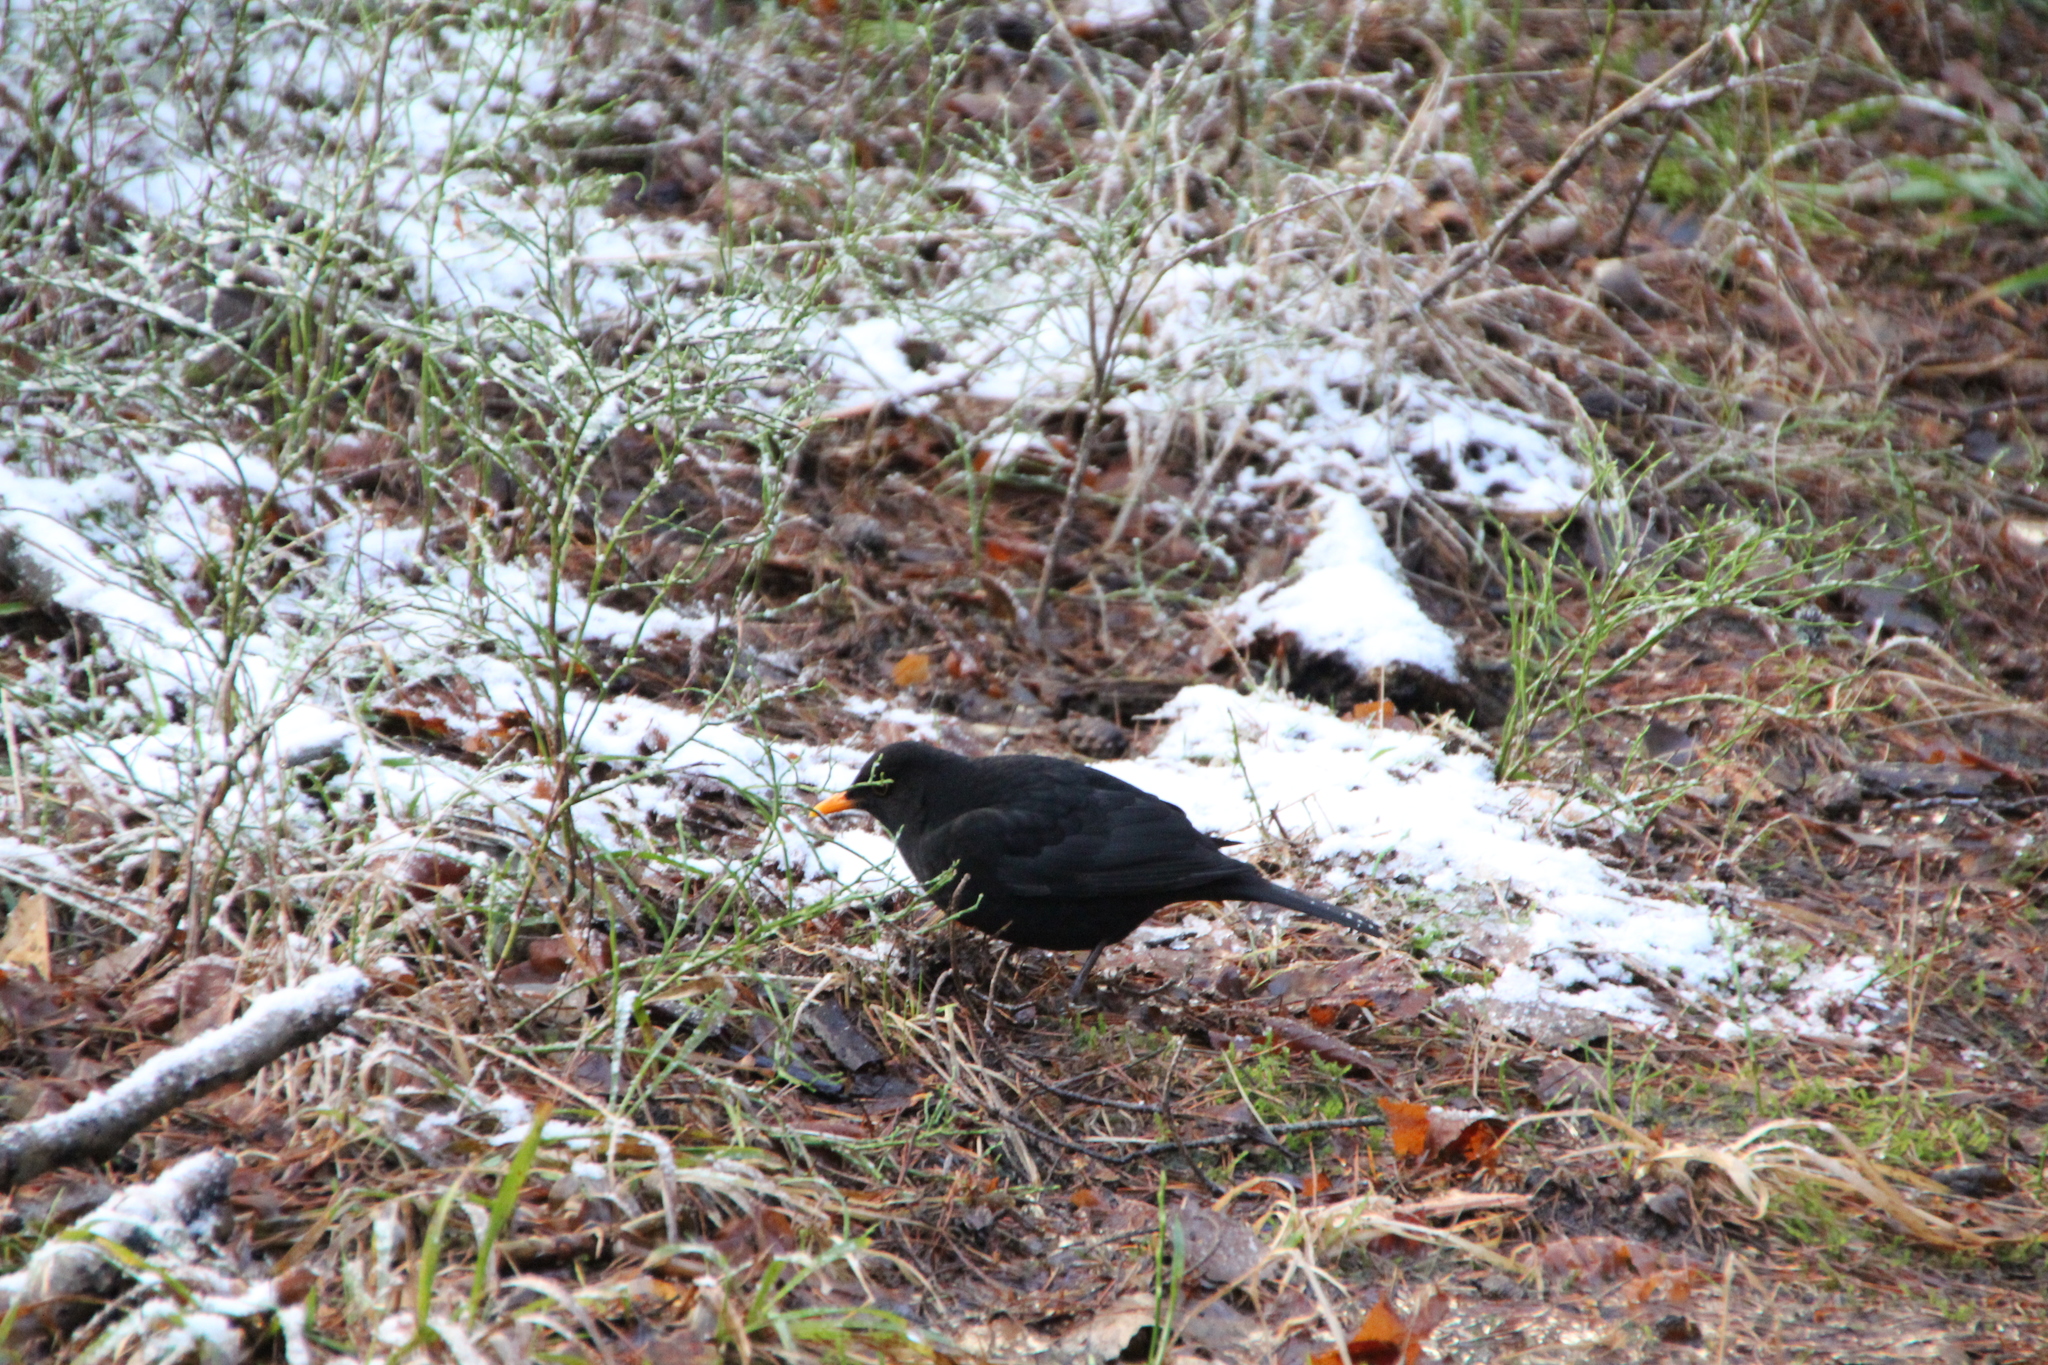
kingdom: Animalia
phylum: Chordata
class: Aves
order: Passeriformes
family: Turdidae
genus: Turdus
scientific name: Turdus merula
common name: Common blackbird
